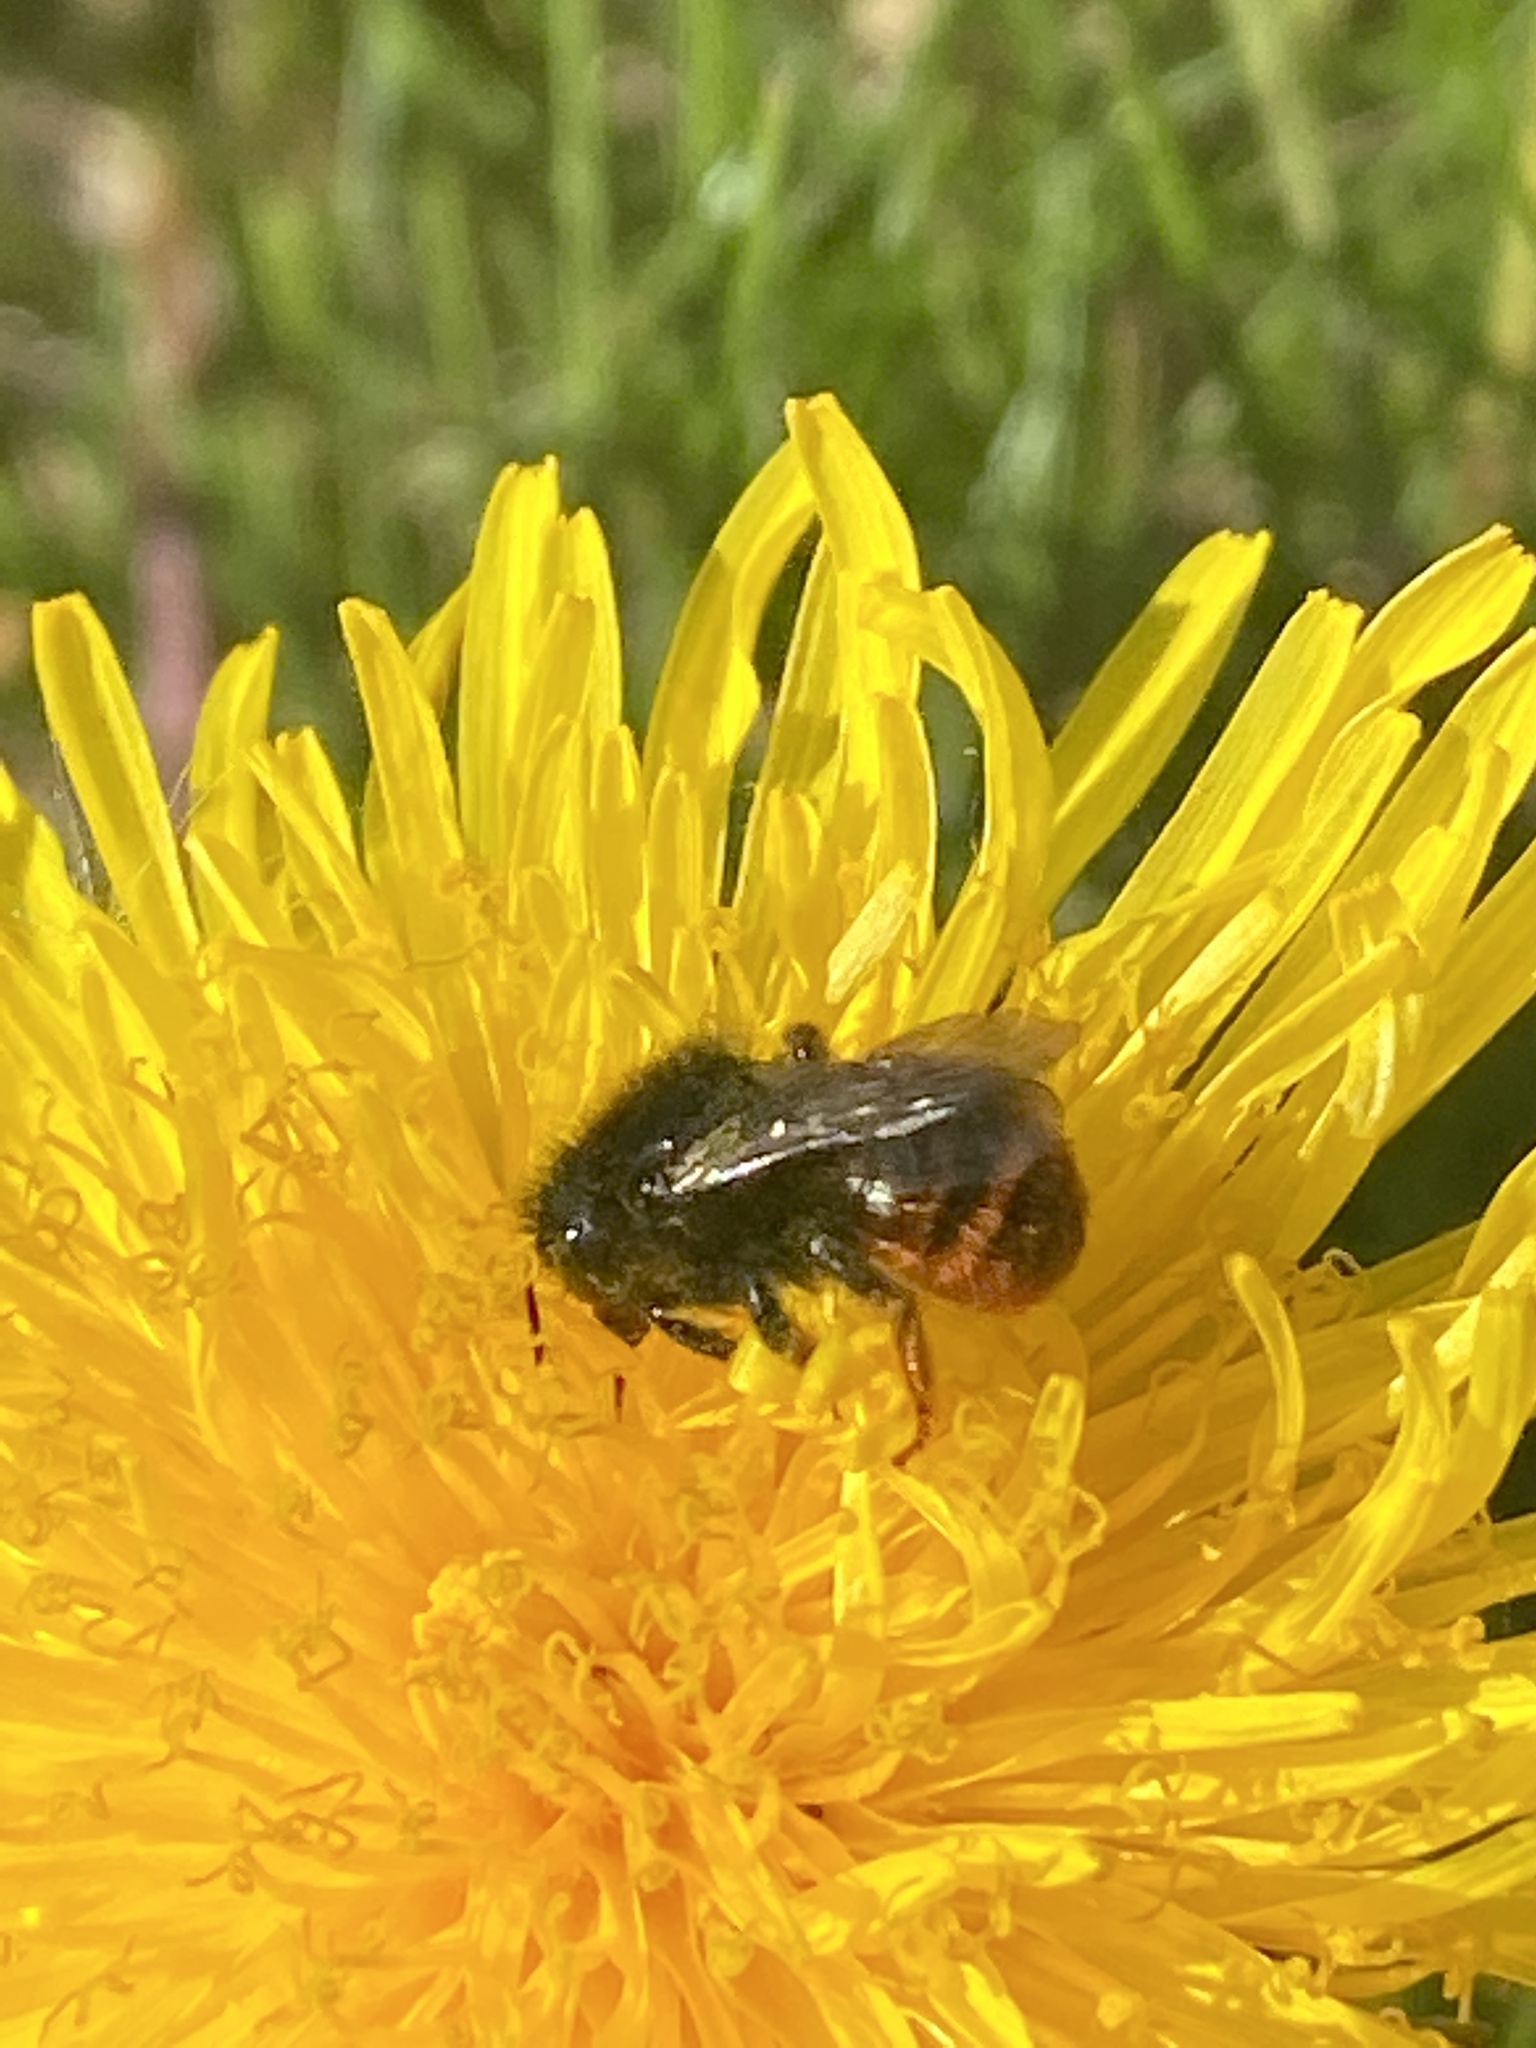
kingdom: Animalia
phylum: Arthropoda
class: Insecta
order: Hymenoptera
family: Megachilidae
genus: Osmia
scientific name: Osmia bicolor
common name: Red-tailed mason bee
